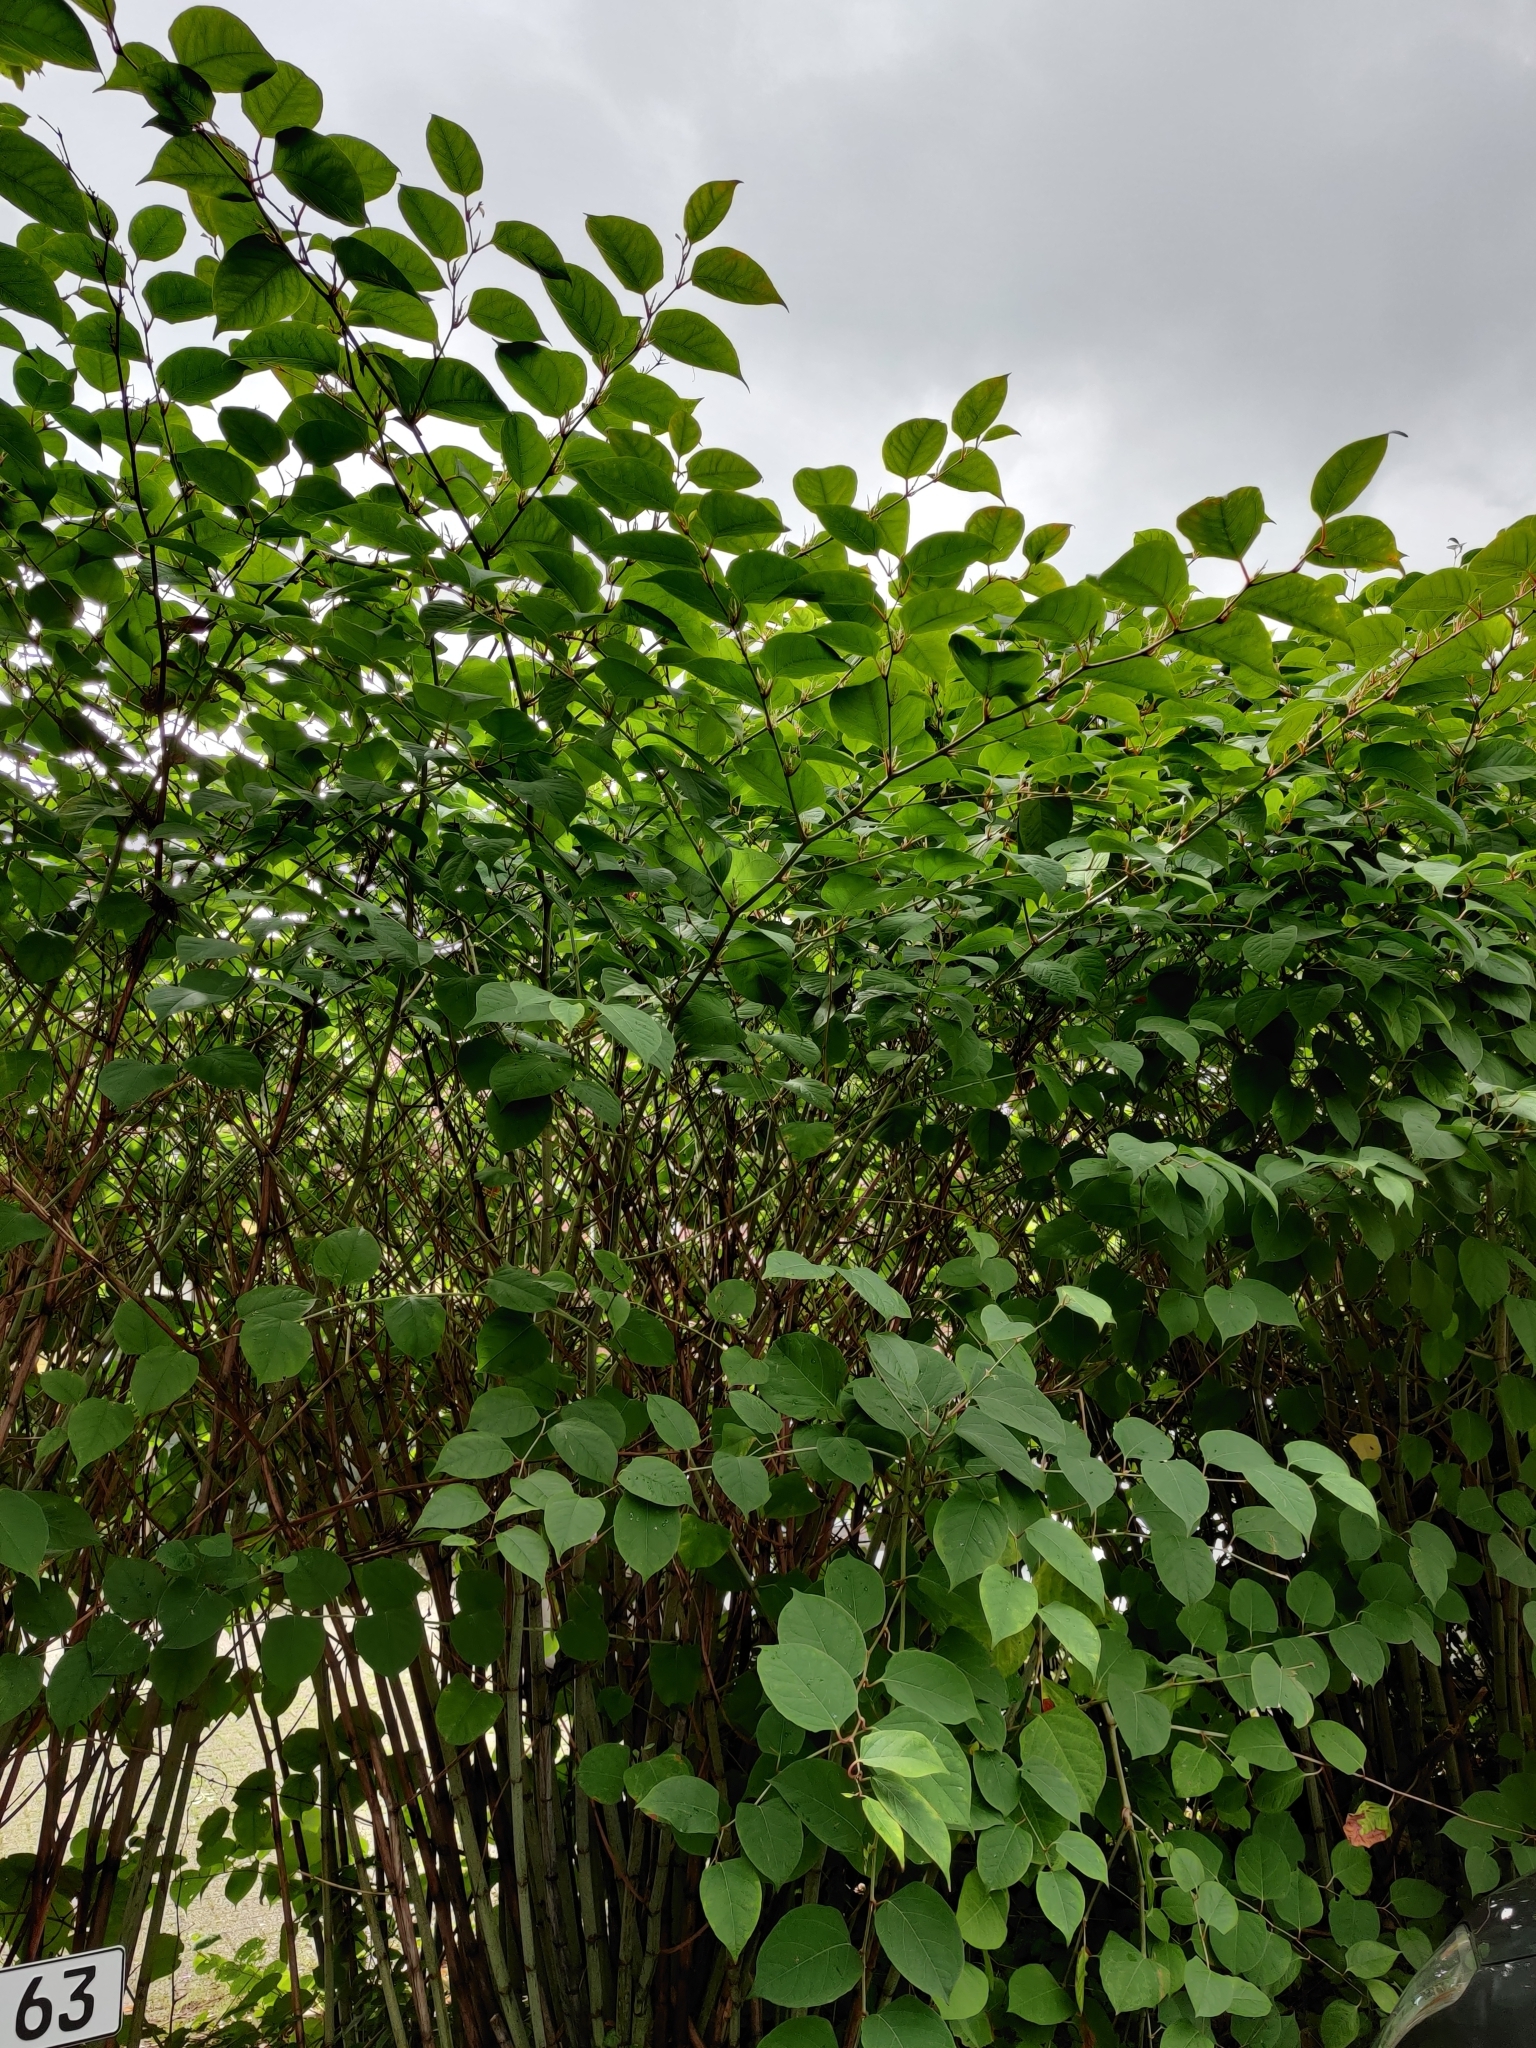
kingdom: Plantae
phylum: Tracheophyta
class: Magnoliopsida
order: Caryophyllales
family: Polygonaceae
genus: Reynoutria
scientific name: Reynoutria japonica
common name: Japanese knotweed
